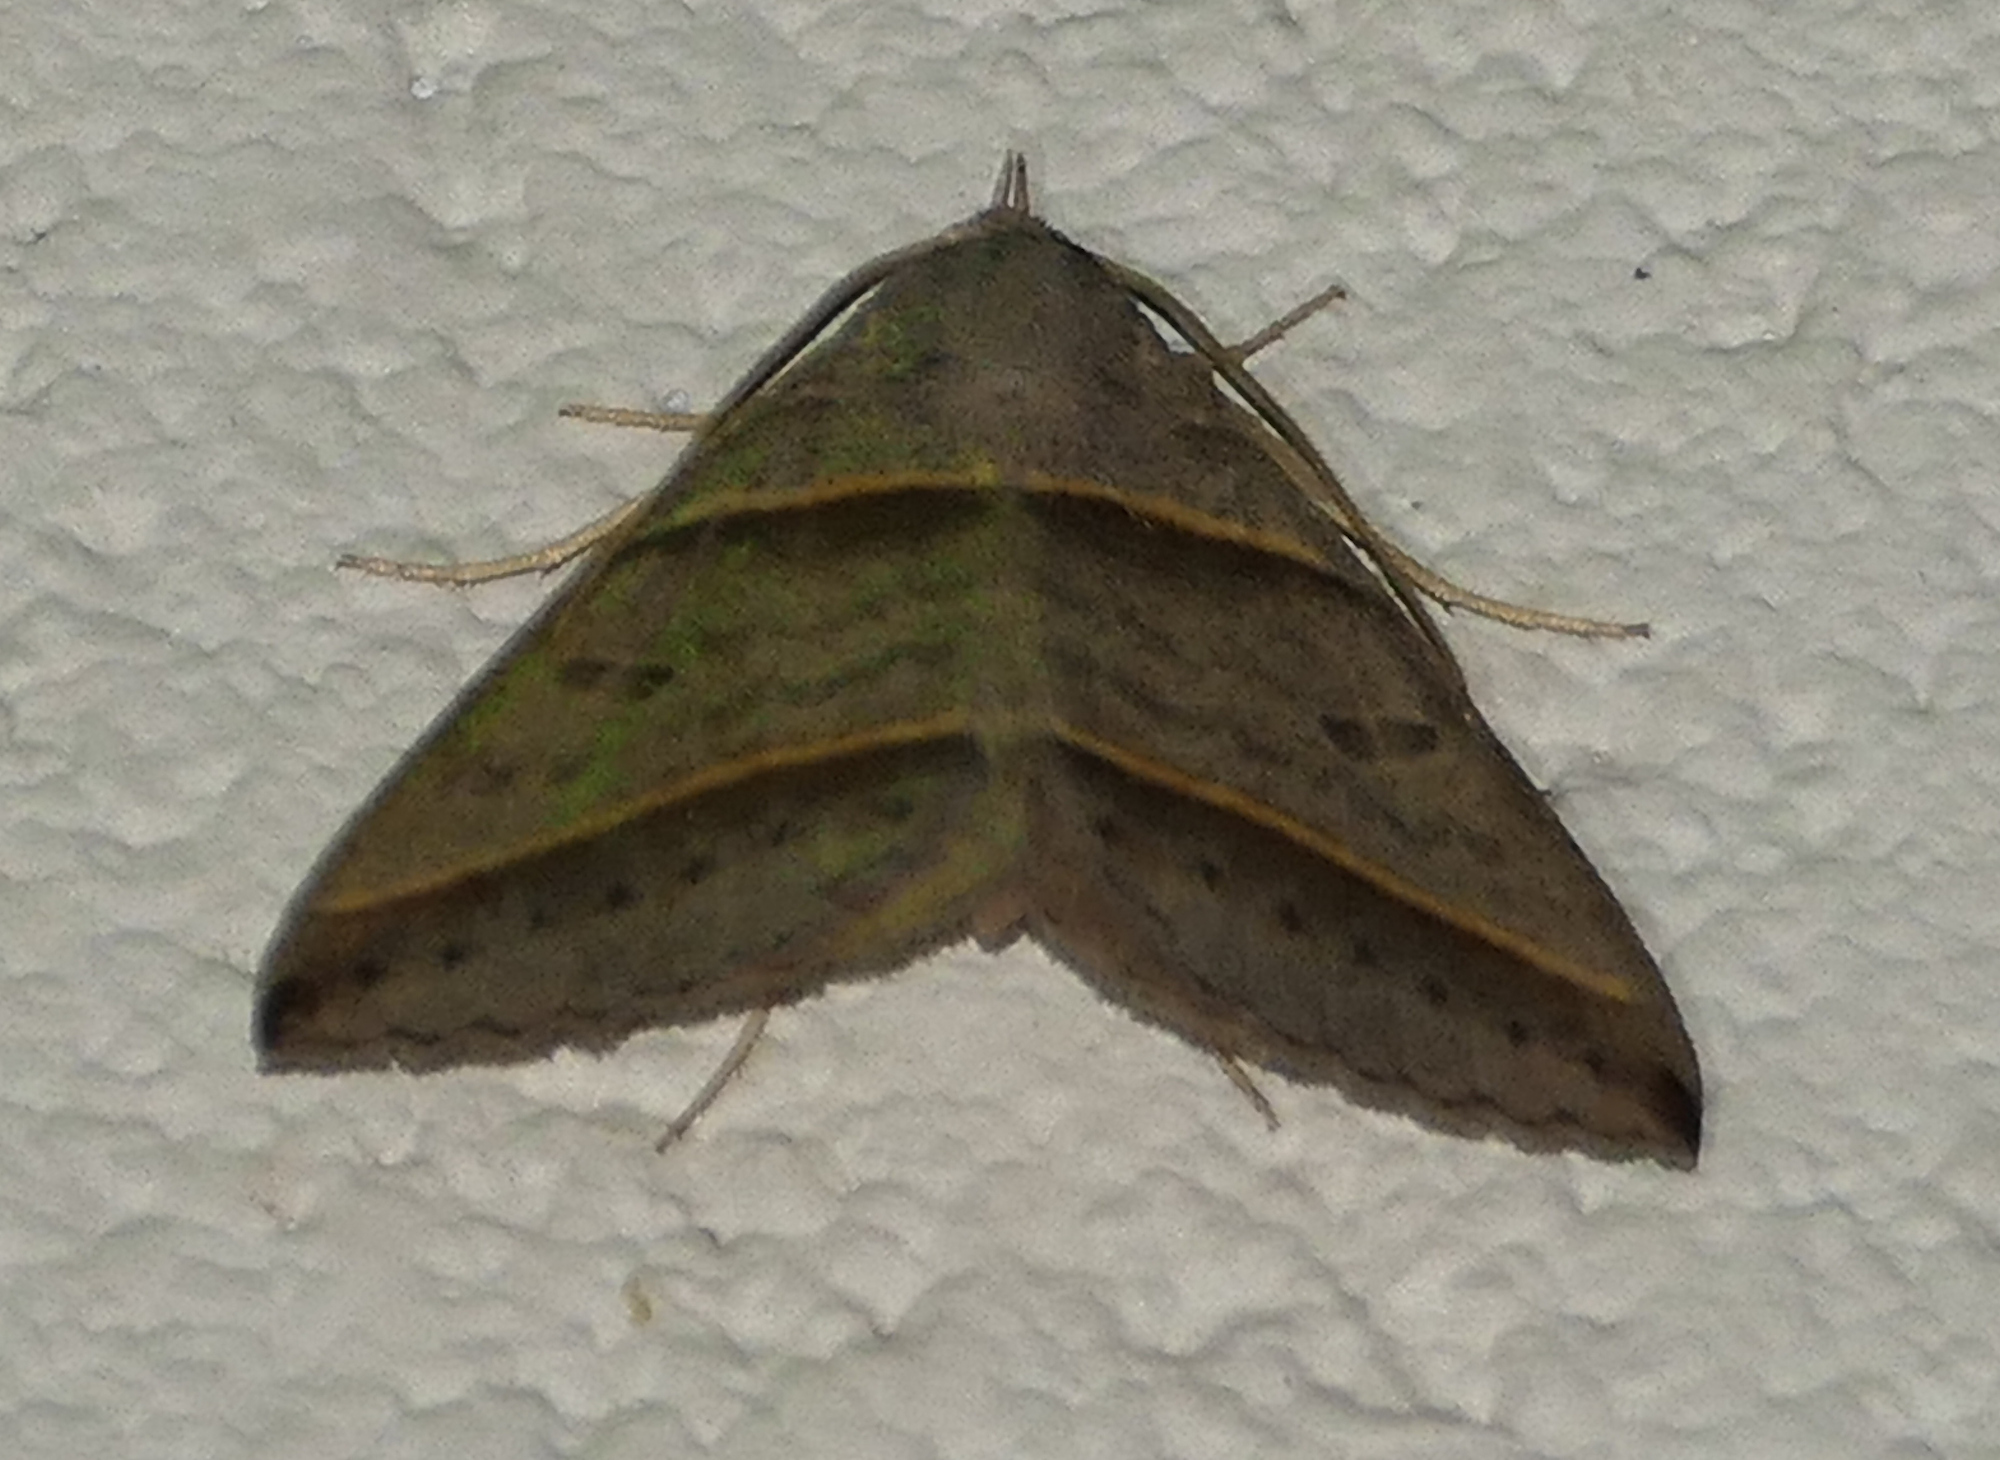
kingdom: Animalia
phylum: Arthropoda
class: Insecta
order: Lepidoptera
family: Erebidae
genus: Ptichodis
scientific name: Ptichodis vinculum
